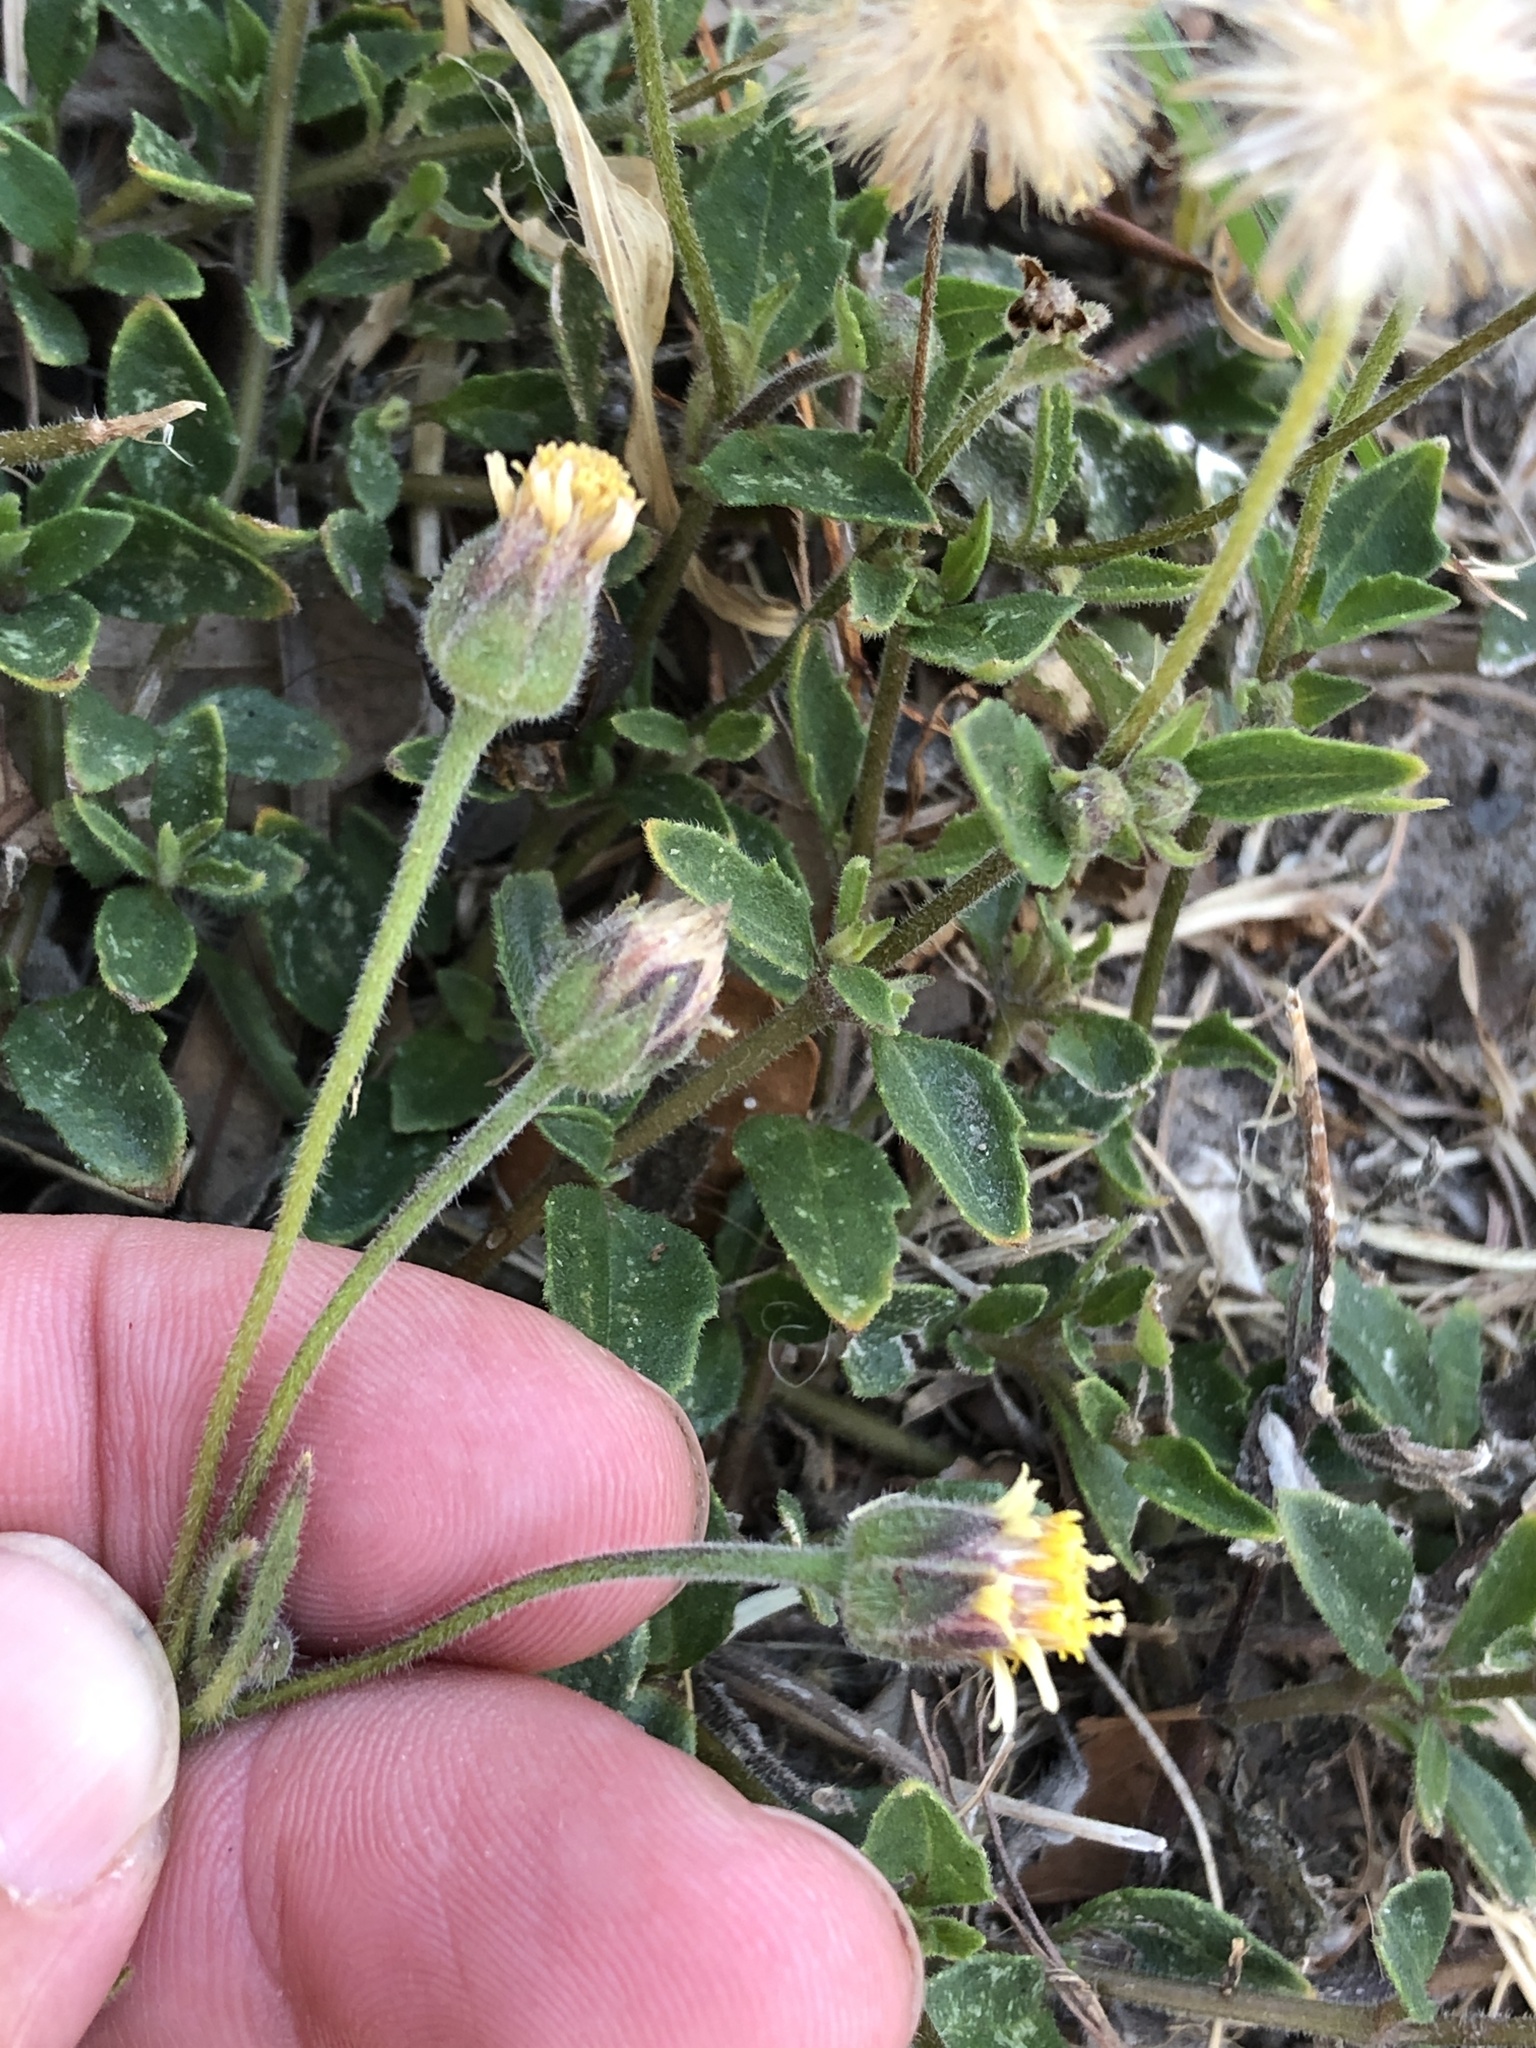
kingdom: Plantae
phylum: Tracheophyta
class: Magnoliopsida
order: Asterales
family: Asteraceae
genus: Tridax
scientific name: Tridax procumbens
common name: Coatbuttons
